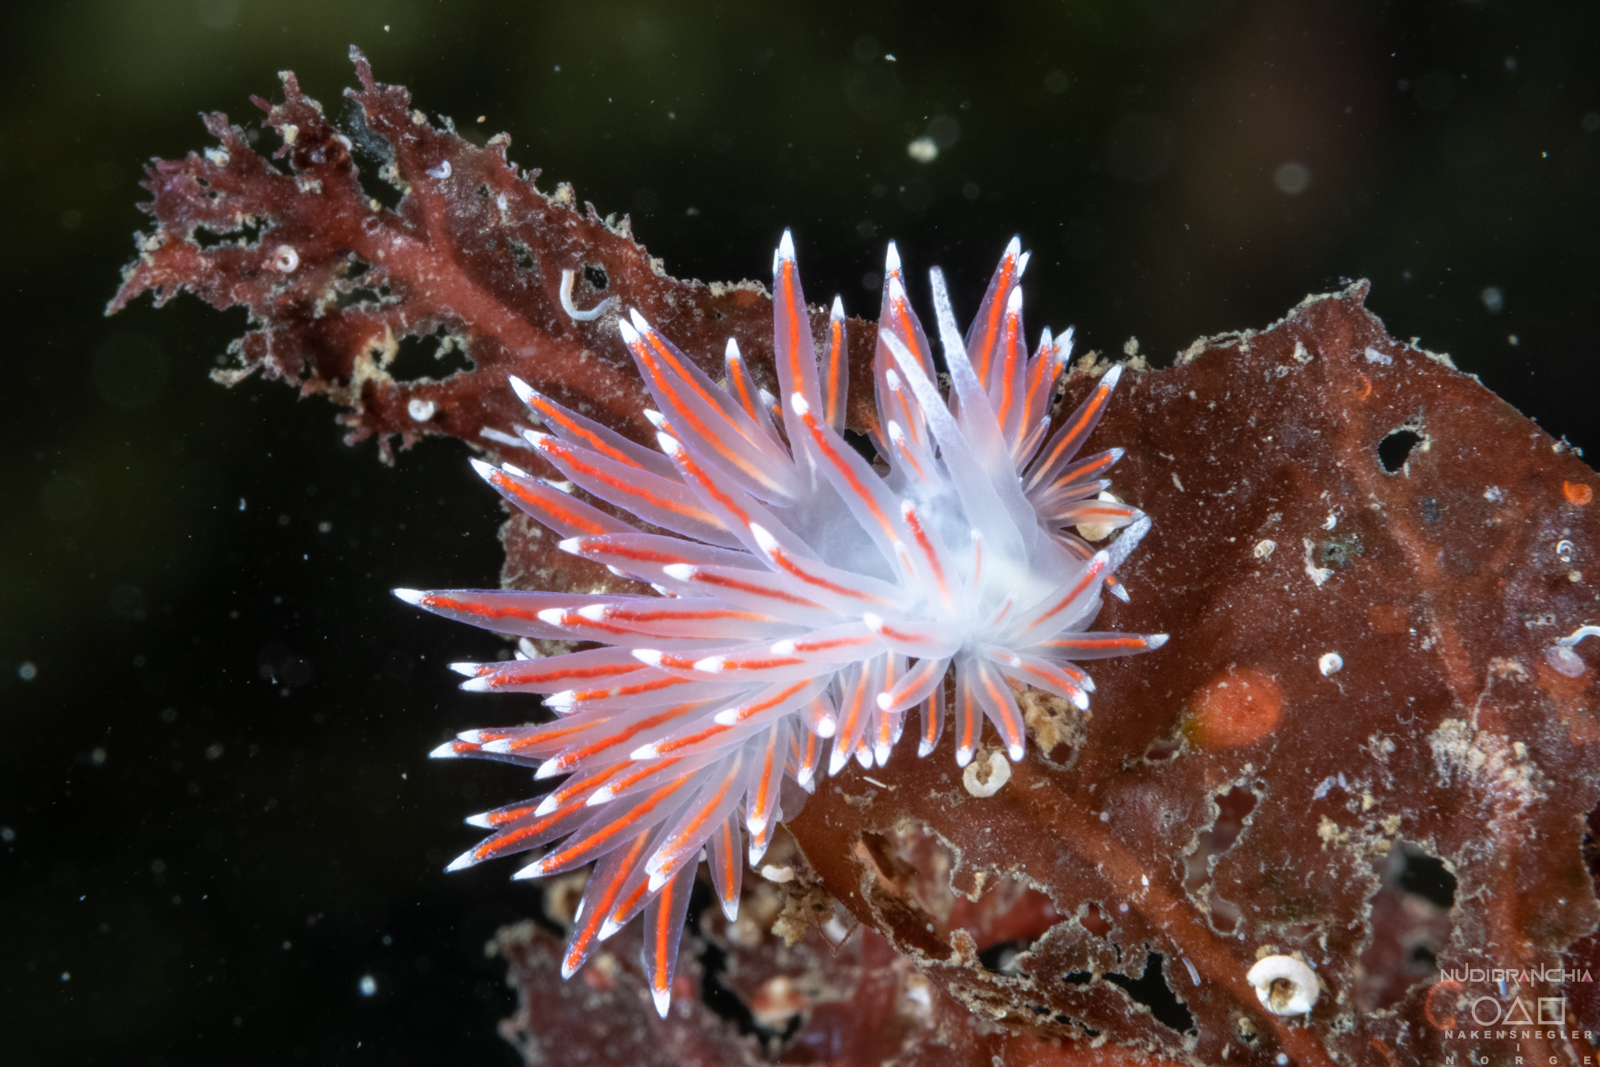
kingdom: Animalia
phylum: Mollusca
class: Gastropoda
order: Nudibranchia
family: Flabellinidae
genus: Carronella
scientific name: Carronella pellucida
